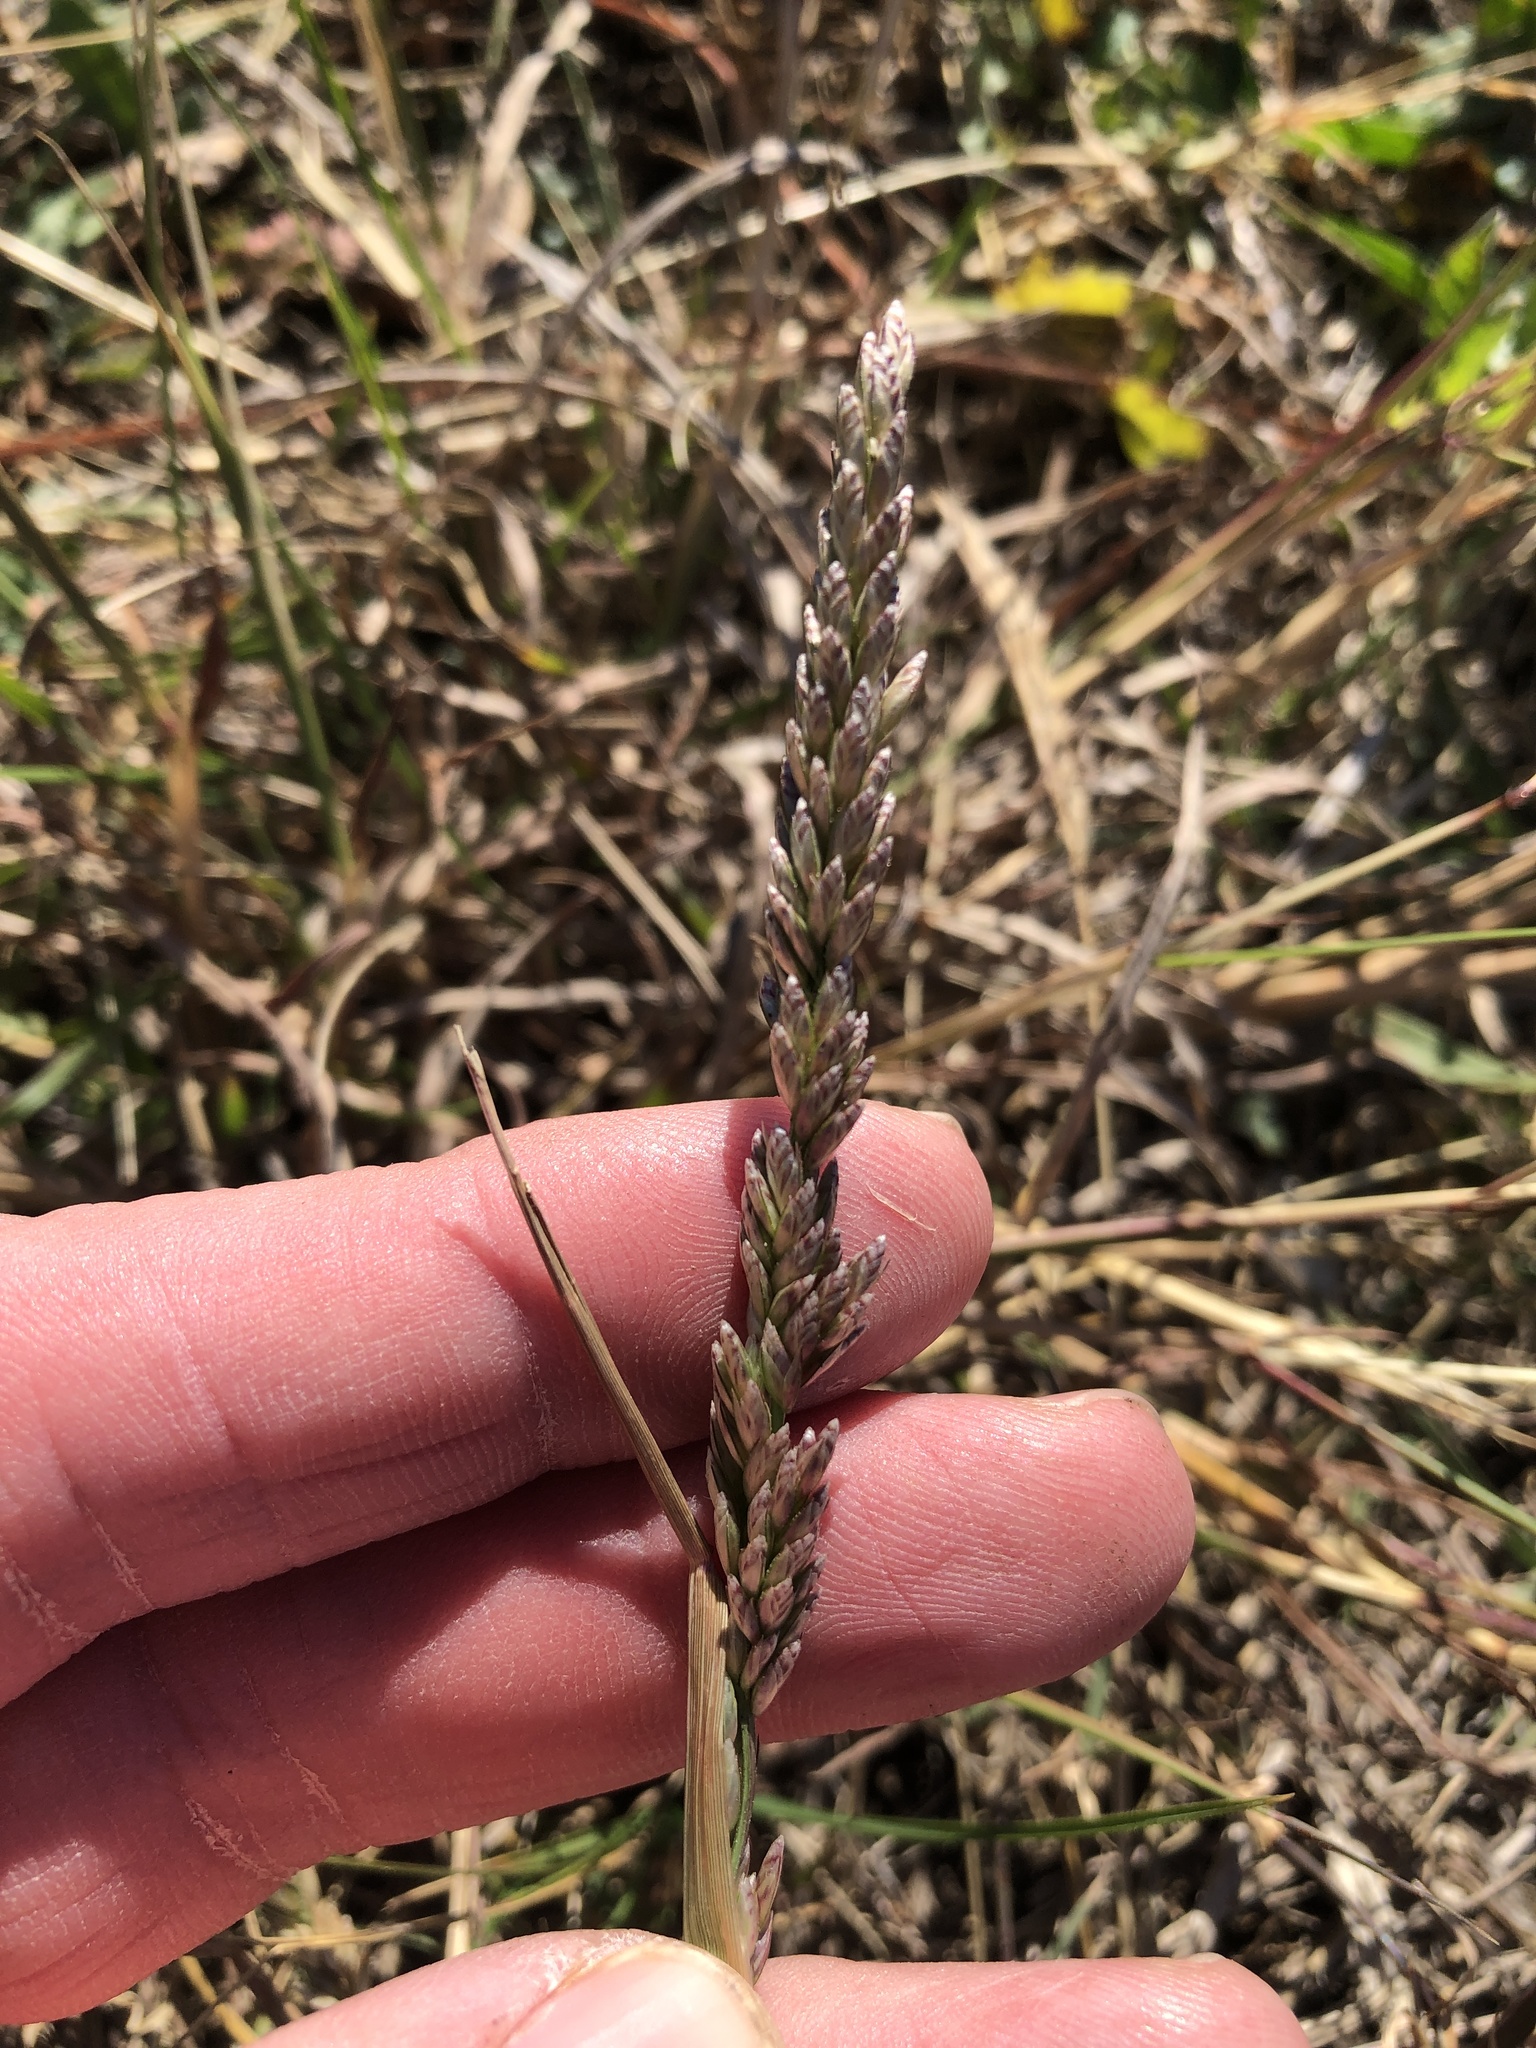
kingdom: Plantae
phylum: Tracheophyta
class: Liliopsida
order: Poales
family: Poaceae
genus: Tridens
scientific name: Tridens albescens
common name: White tridens
